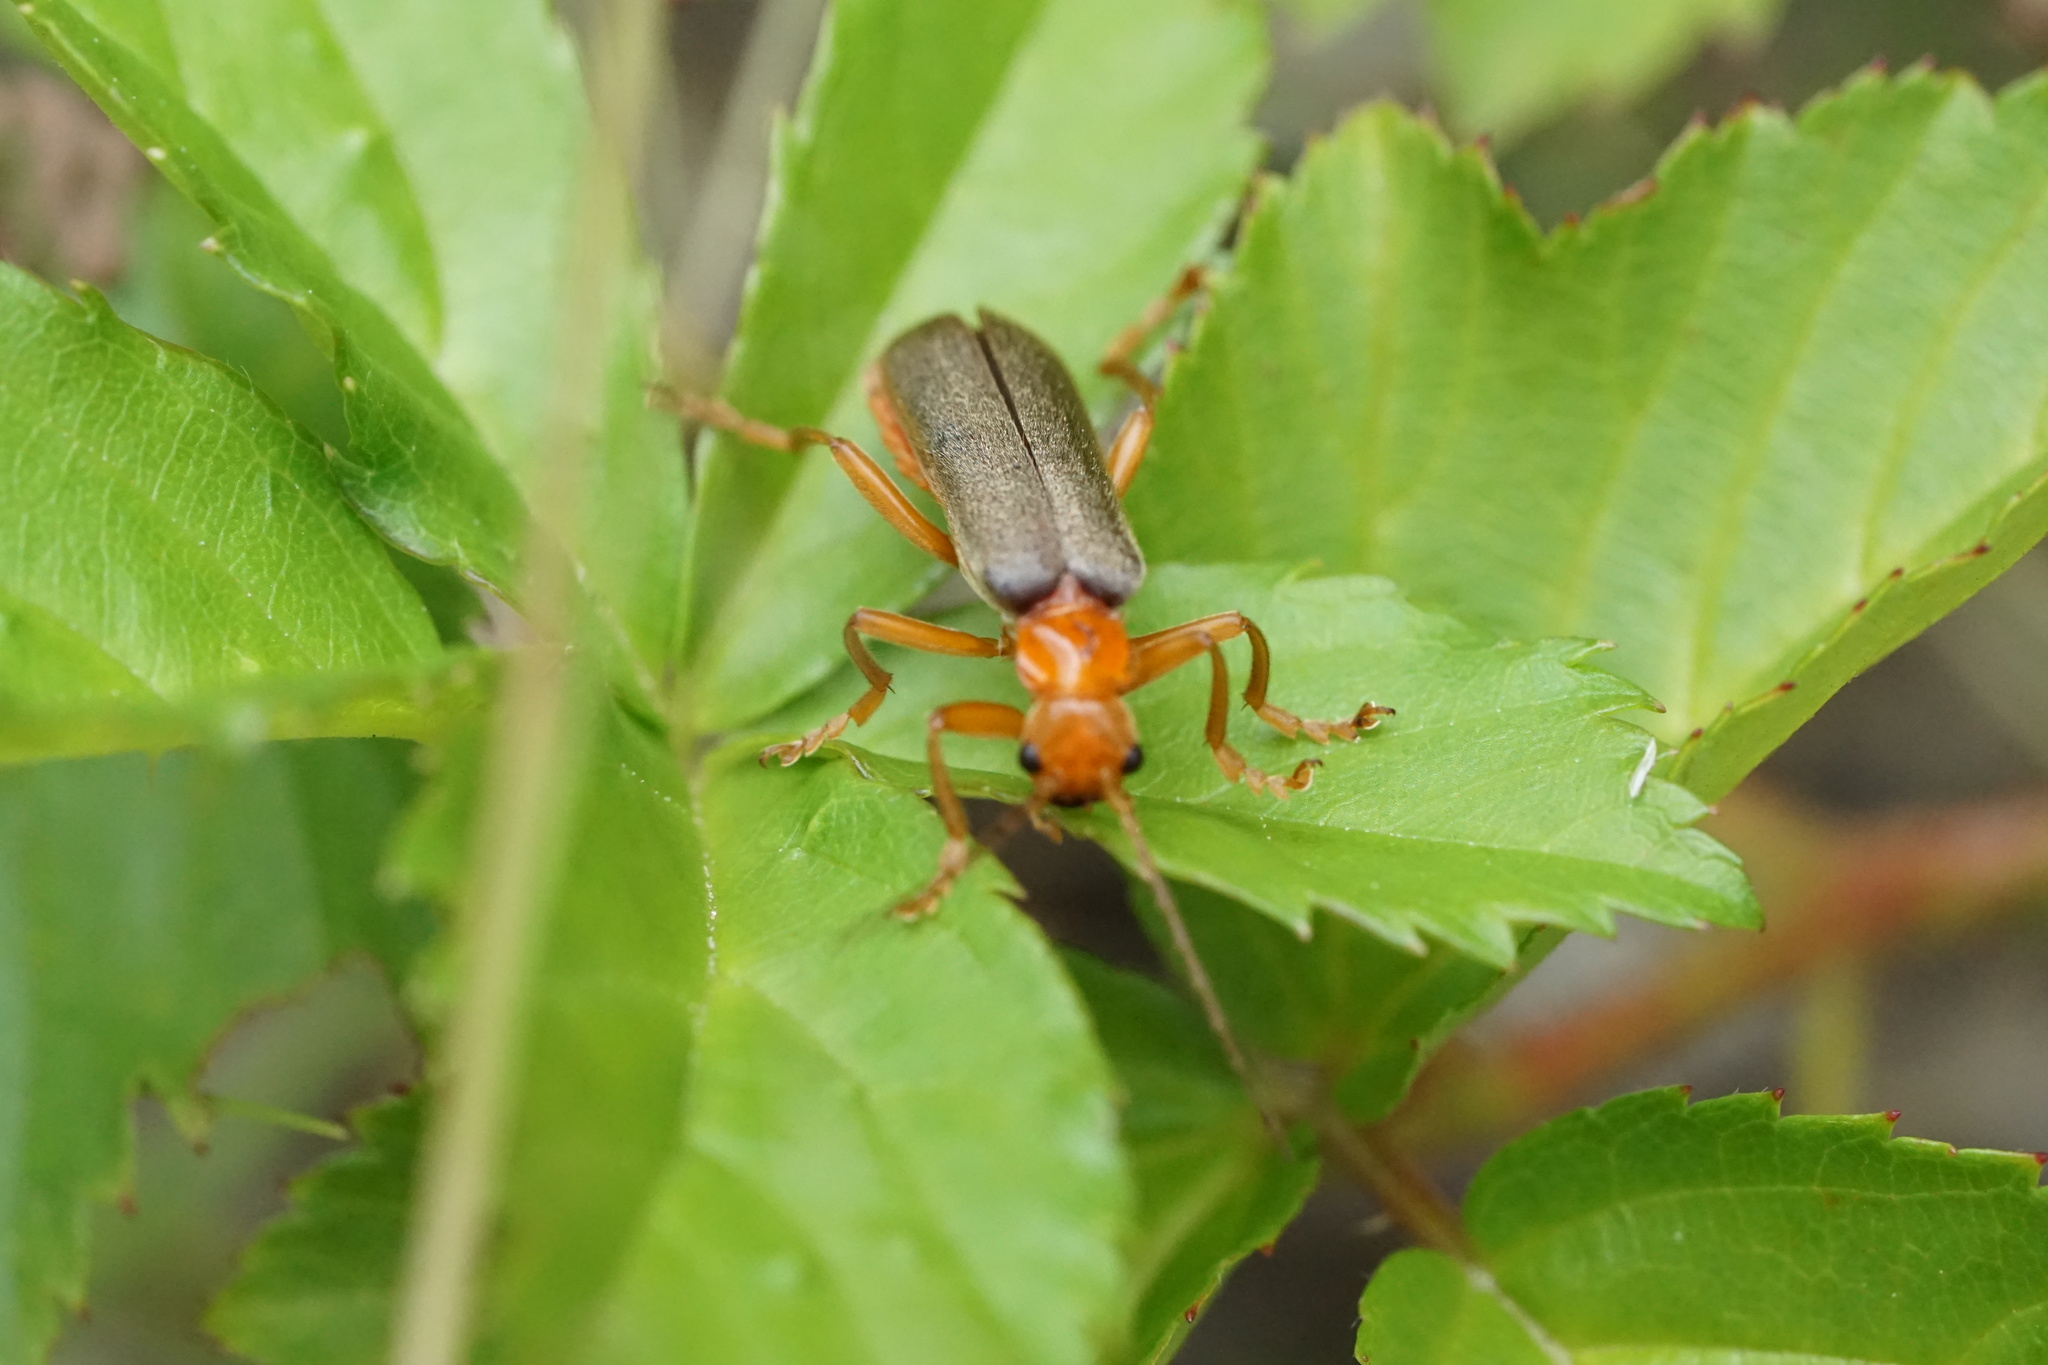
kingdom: Animalia
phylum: Arthropoda
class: Insecta
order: Coleoptera
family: Cantharidae
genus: Pacificanthia
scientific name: Pacificanthia rotundicollis
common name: Brown leatherwing beetle
